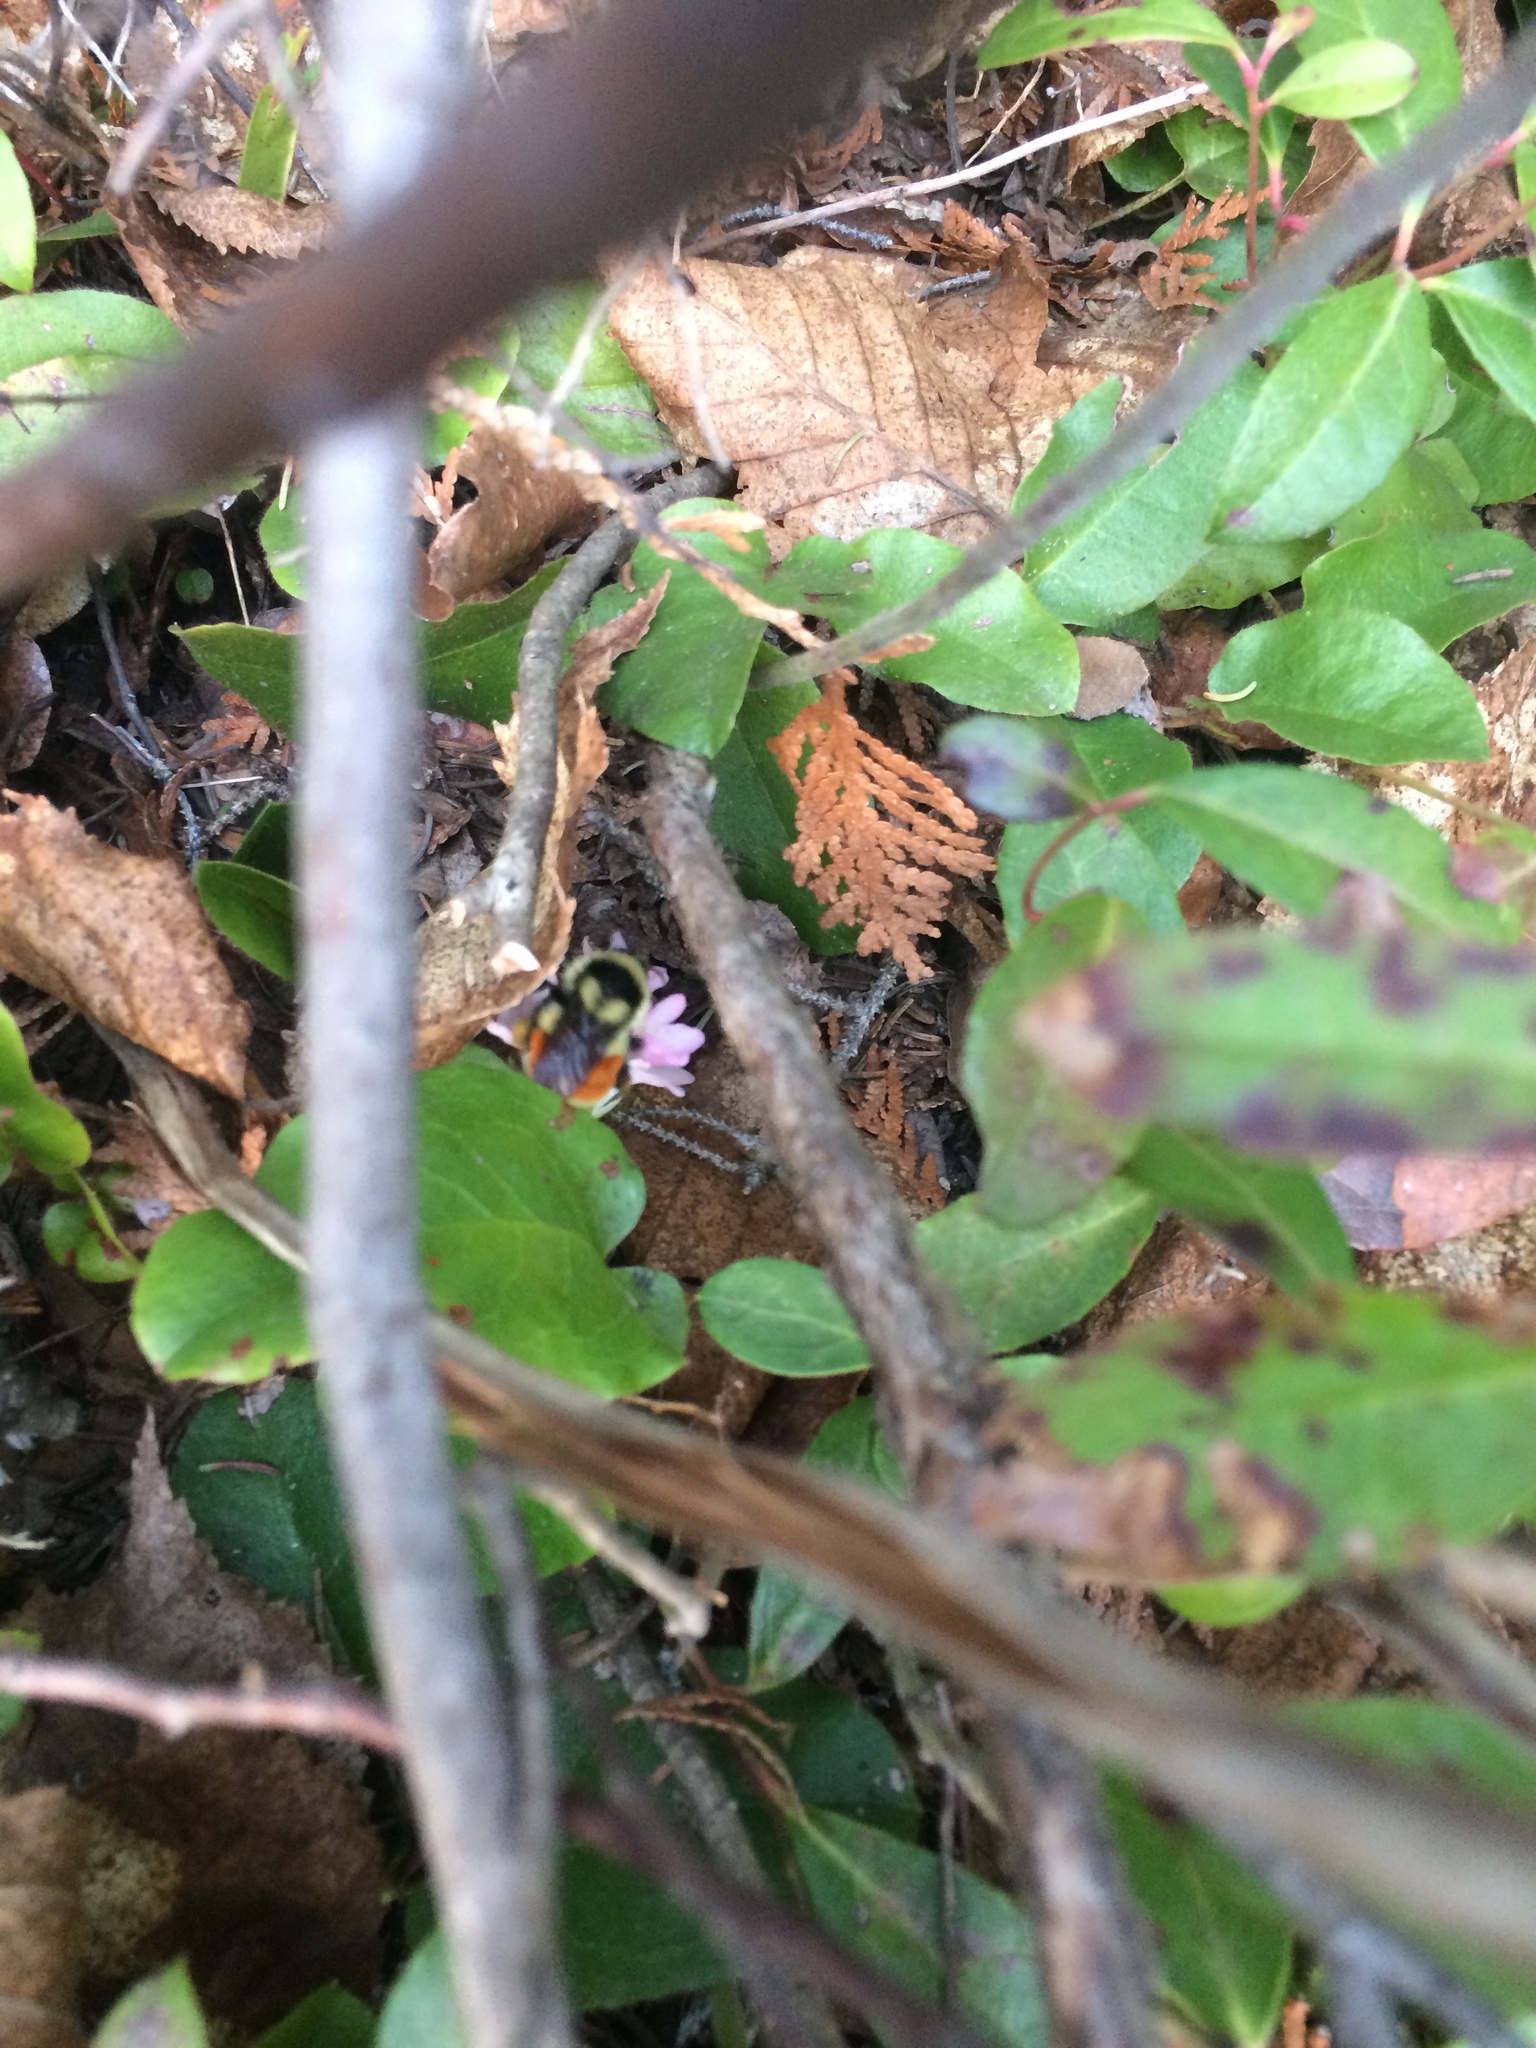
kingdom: Animalia
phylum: Arthropoda
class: Insecta
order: Hymenoptera
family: Apidae
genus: Bombus
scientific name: Bombus ternarius
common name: Tri-colored bumble bee
